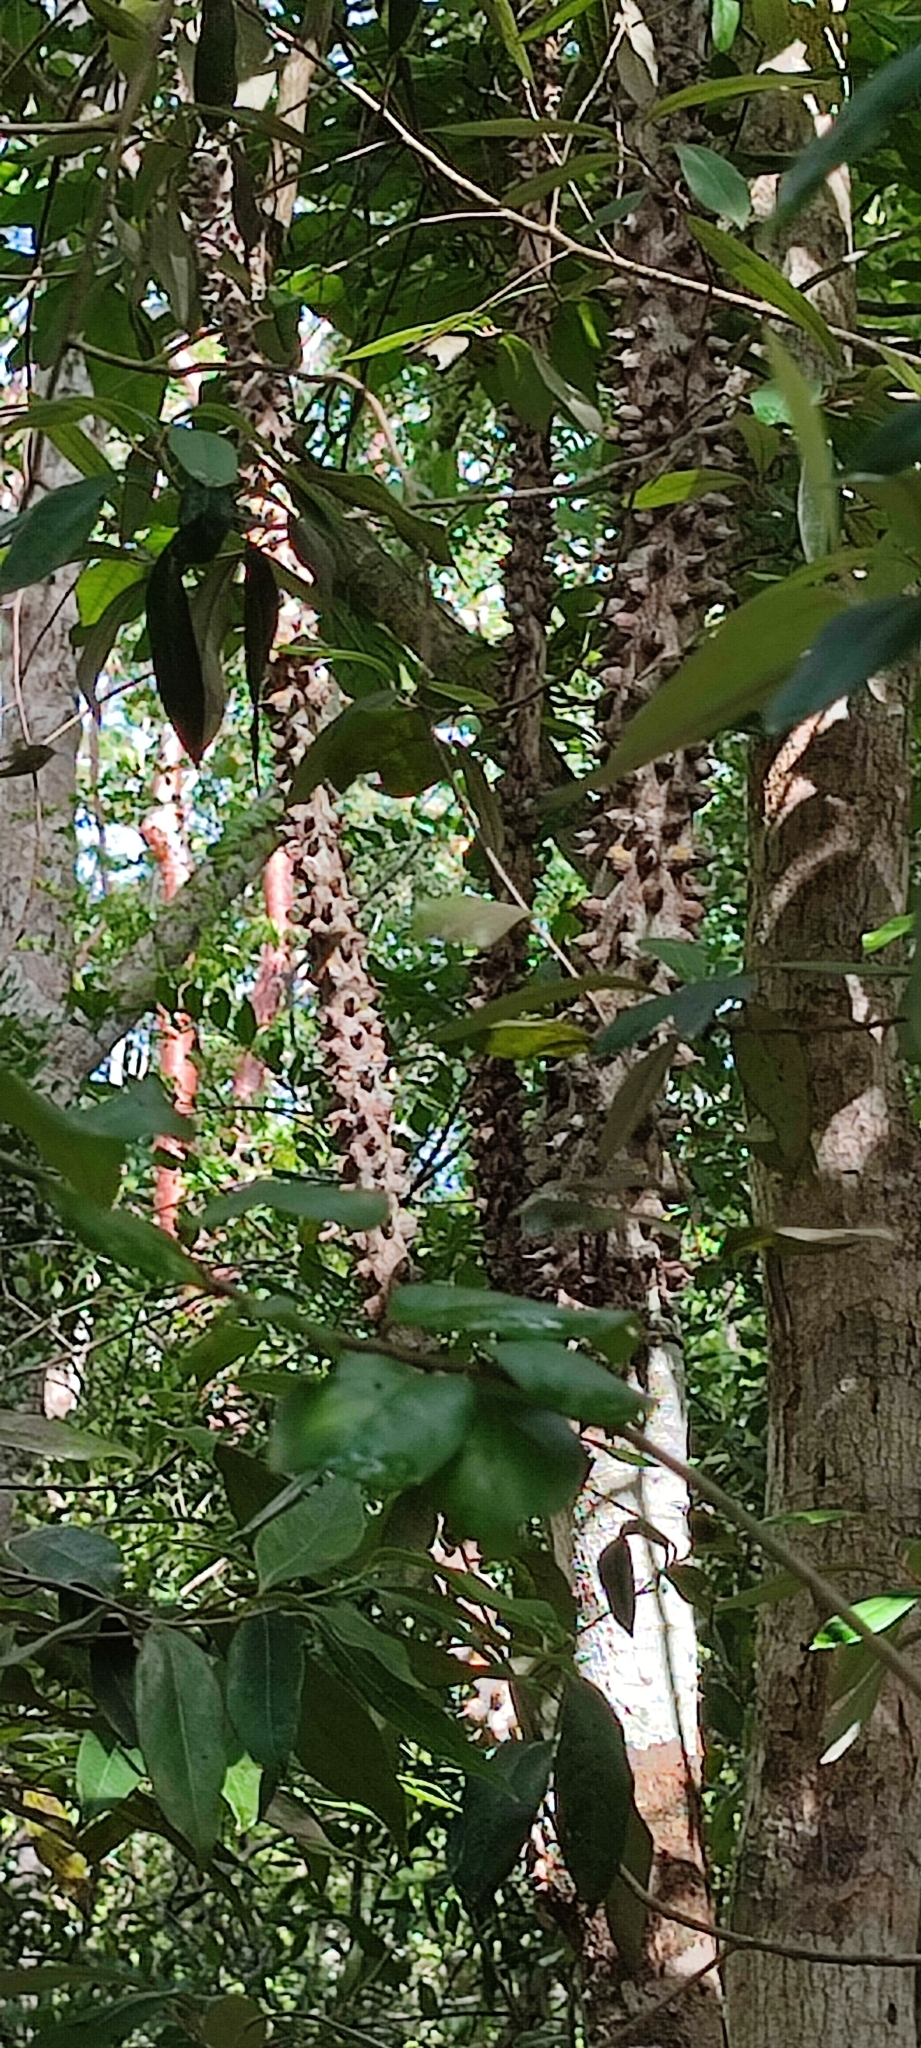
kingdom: Plantae
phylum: Tracheophyta
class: Magnoliopsida
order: Sapindales
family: Rutaceae
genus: Zanthoxylum
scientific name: Zanthoxylum caribaeum
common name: Prickly yellow
